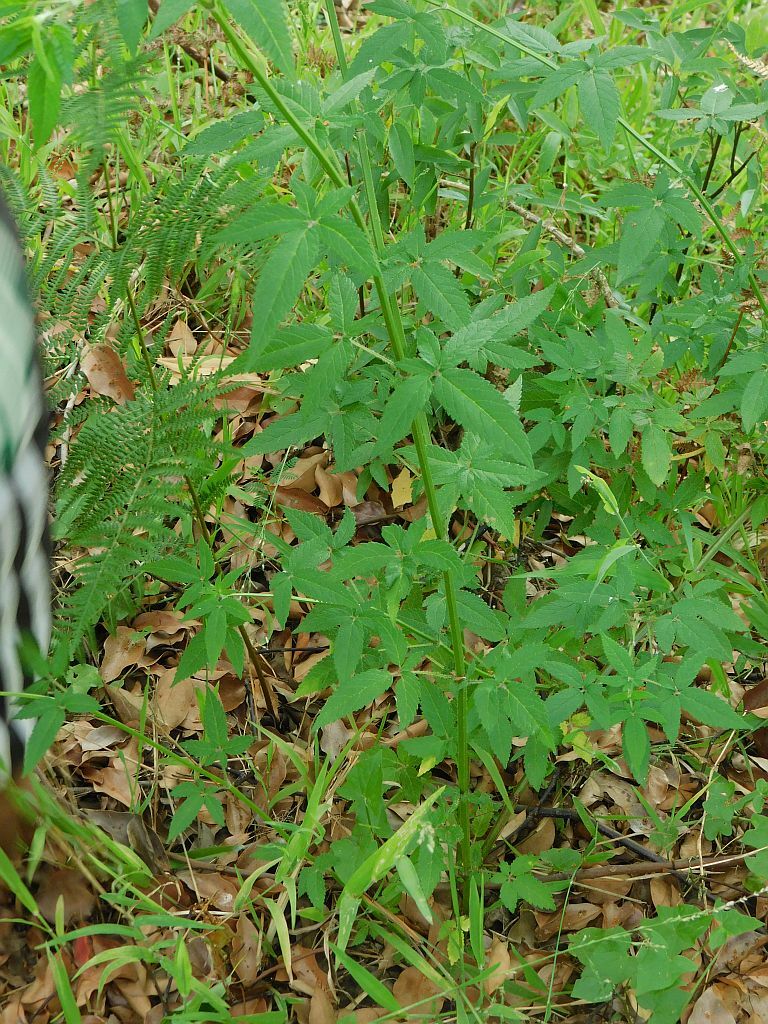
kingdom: Plantae
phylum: Tracheophyta
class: Magnoliopsida
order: Lamiales
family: Lamiaceae
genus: Cedronella
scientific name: Cedronella canariensis
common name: Canary islands balm
